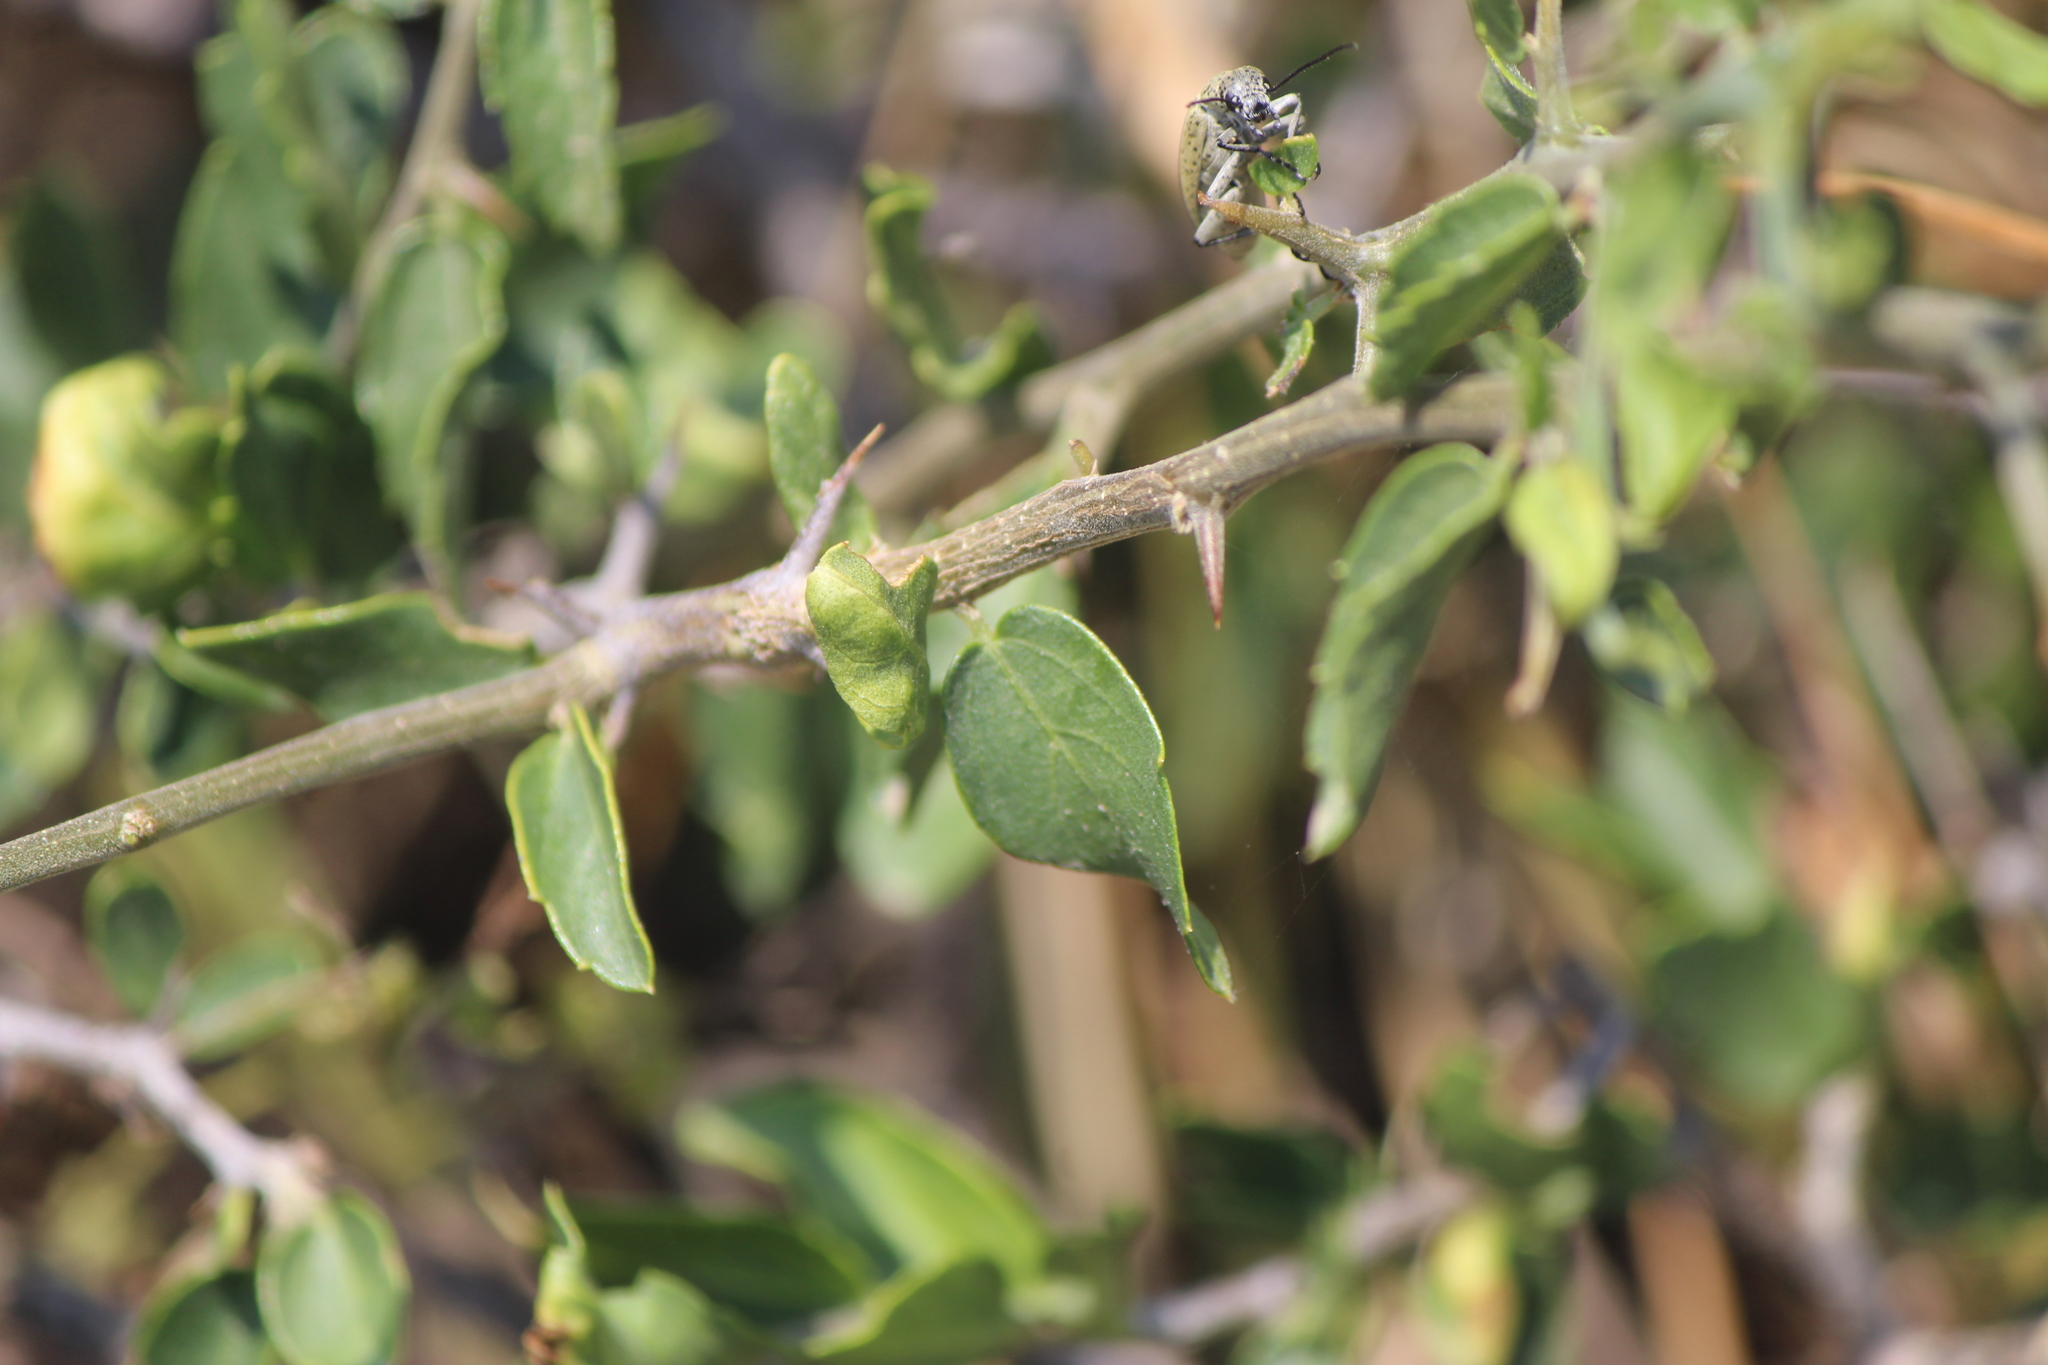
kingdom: Plantae
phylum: Tracheophyta
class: Magnoliopsida
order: Rosales
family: Cannabaceae
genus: Celtis
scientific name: Celtis pallida
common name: Desert hackberry
